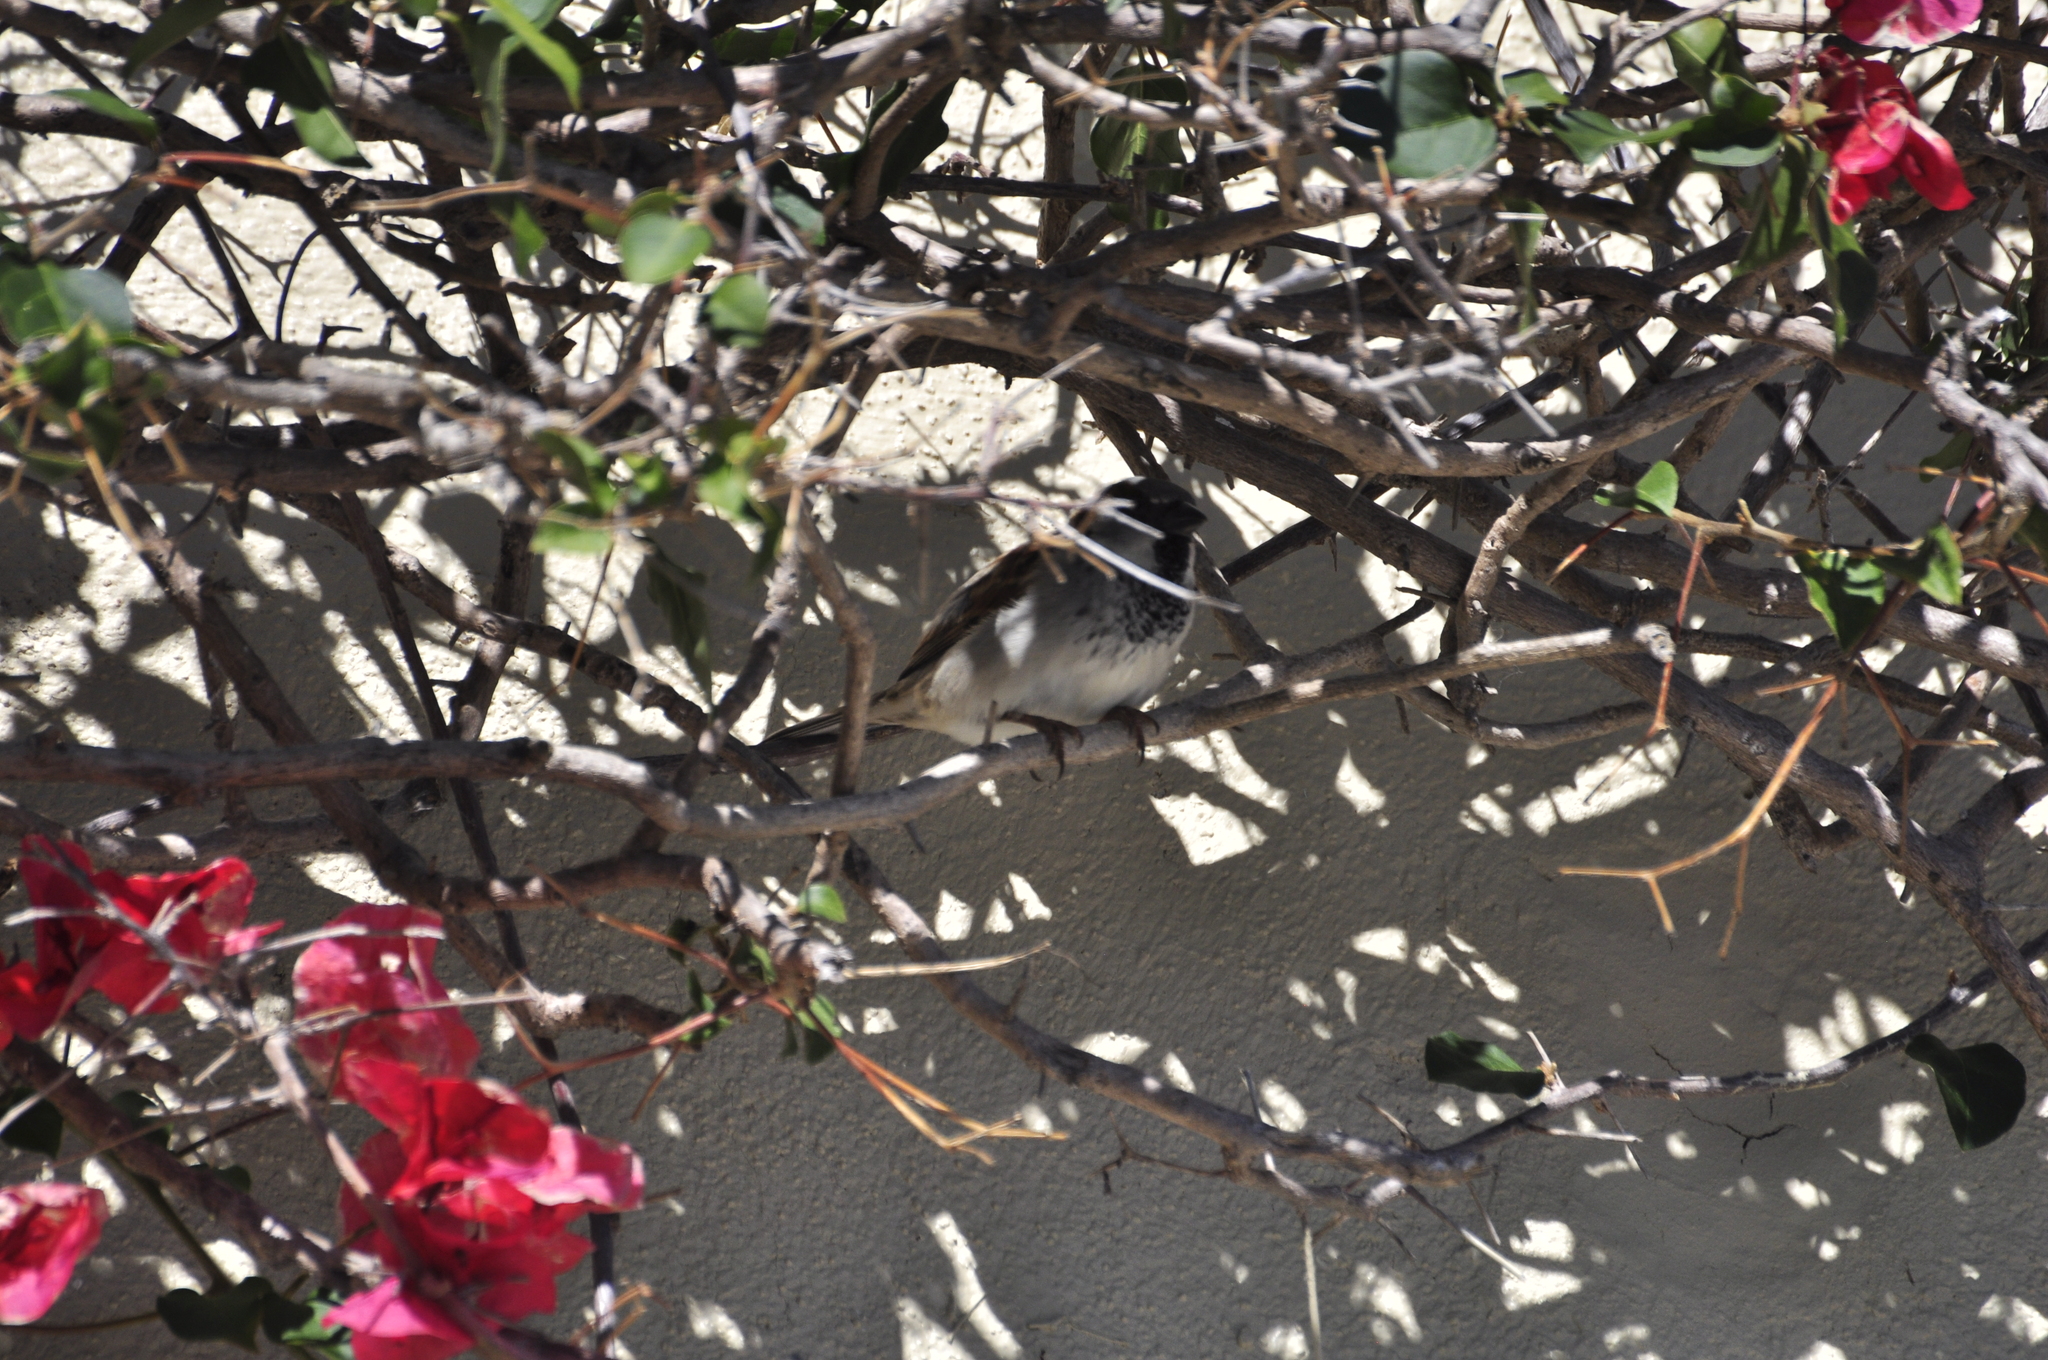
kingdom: Animalia
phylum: Chordata
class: Aves
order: Passeriformes
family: Passeridae
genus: Passer
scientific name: Passer domesticus
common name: House sparrow
